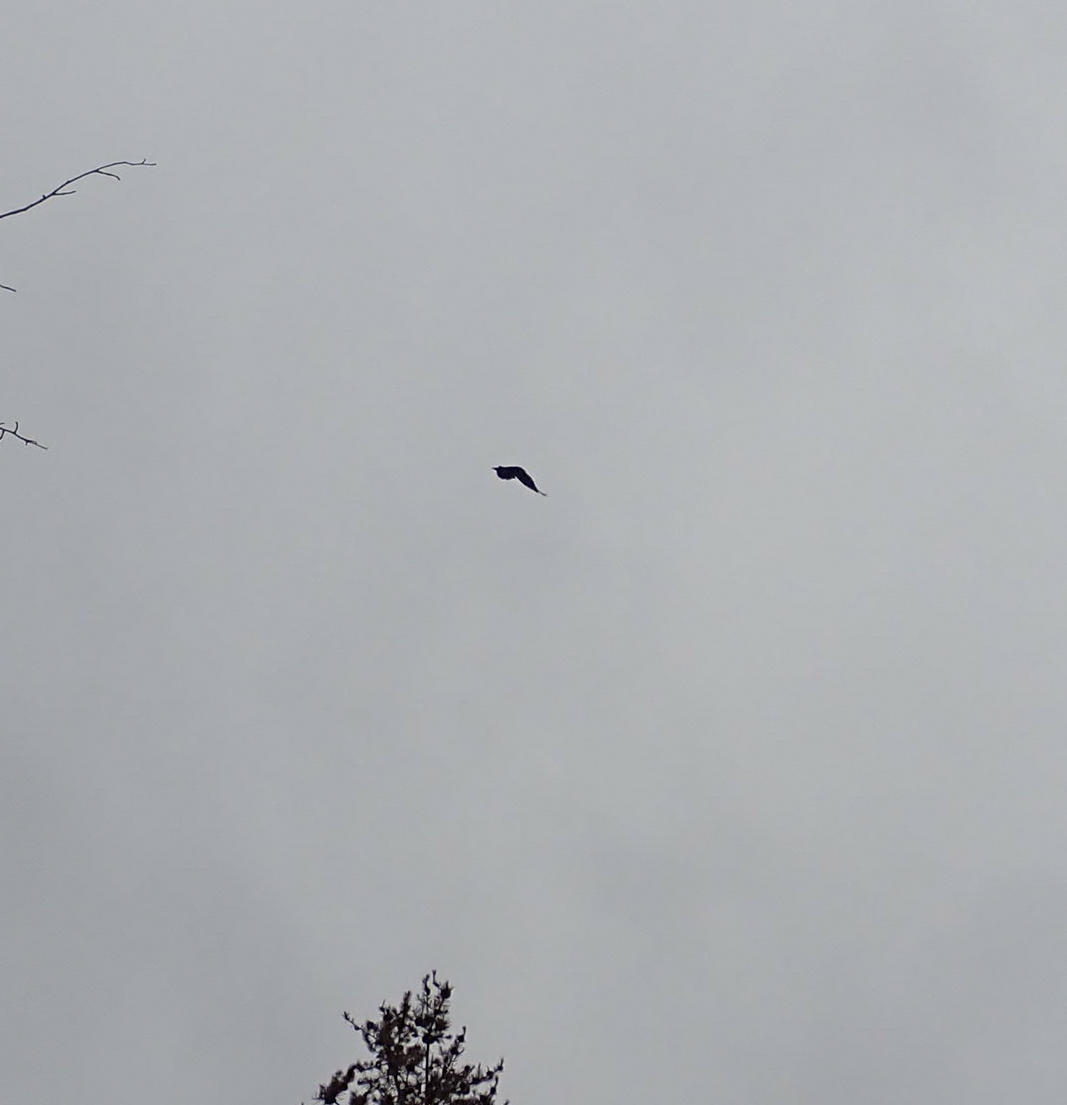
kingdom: Animalia
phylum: Chordata
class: Aves
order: Passeriformes
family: Corvidae
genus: Corvus
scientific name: Corvus corax
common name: Common raven
